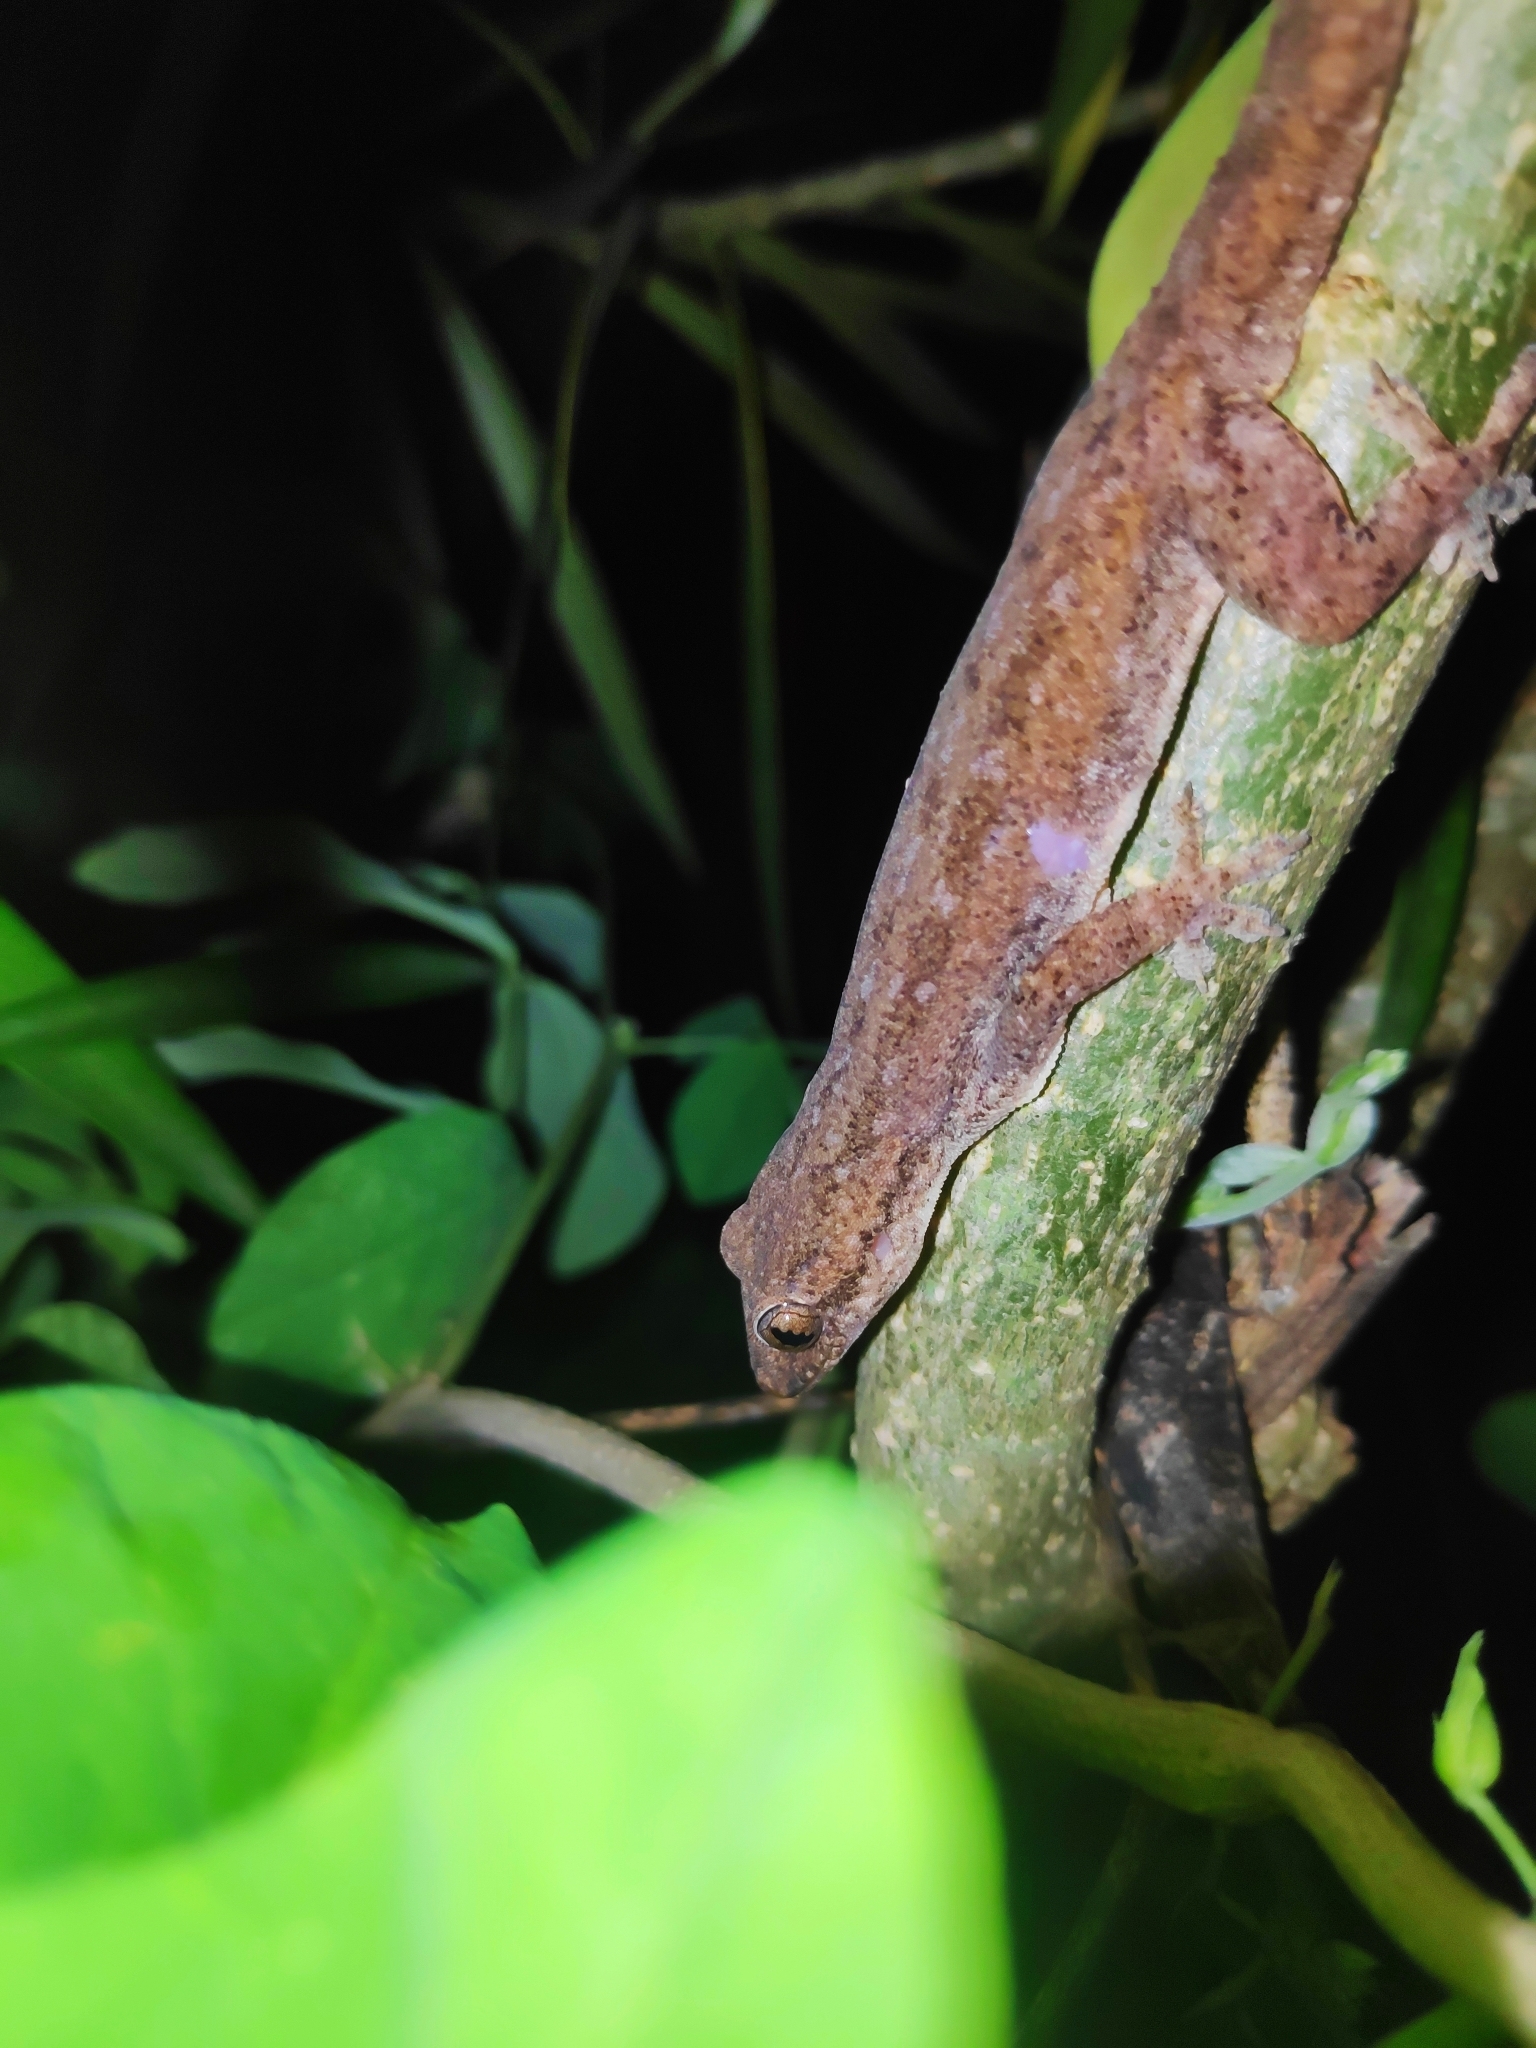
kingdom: Animalia
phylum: Chordata
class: Squamata
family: Gekkonidae
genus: Hemidactylus
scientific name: Hemidactylus frenatus
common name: Common house gecko
